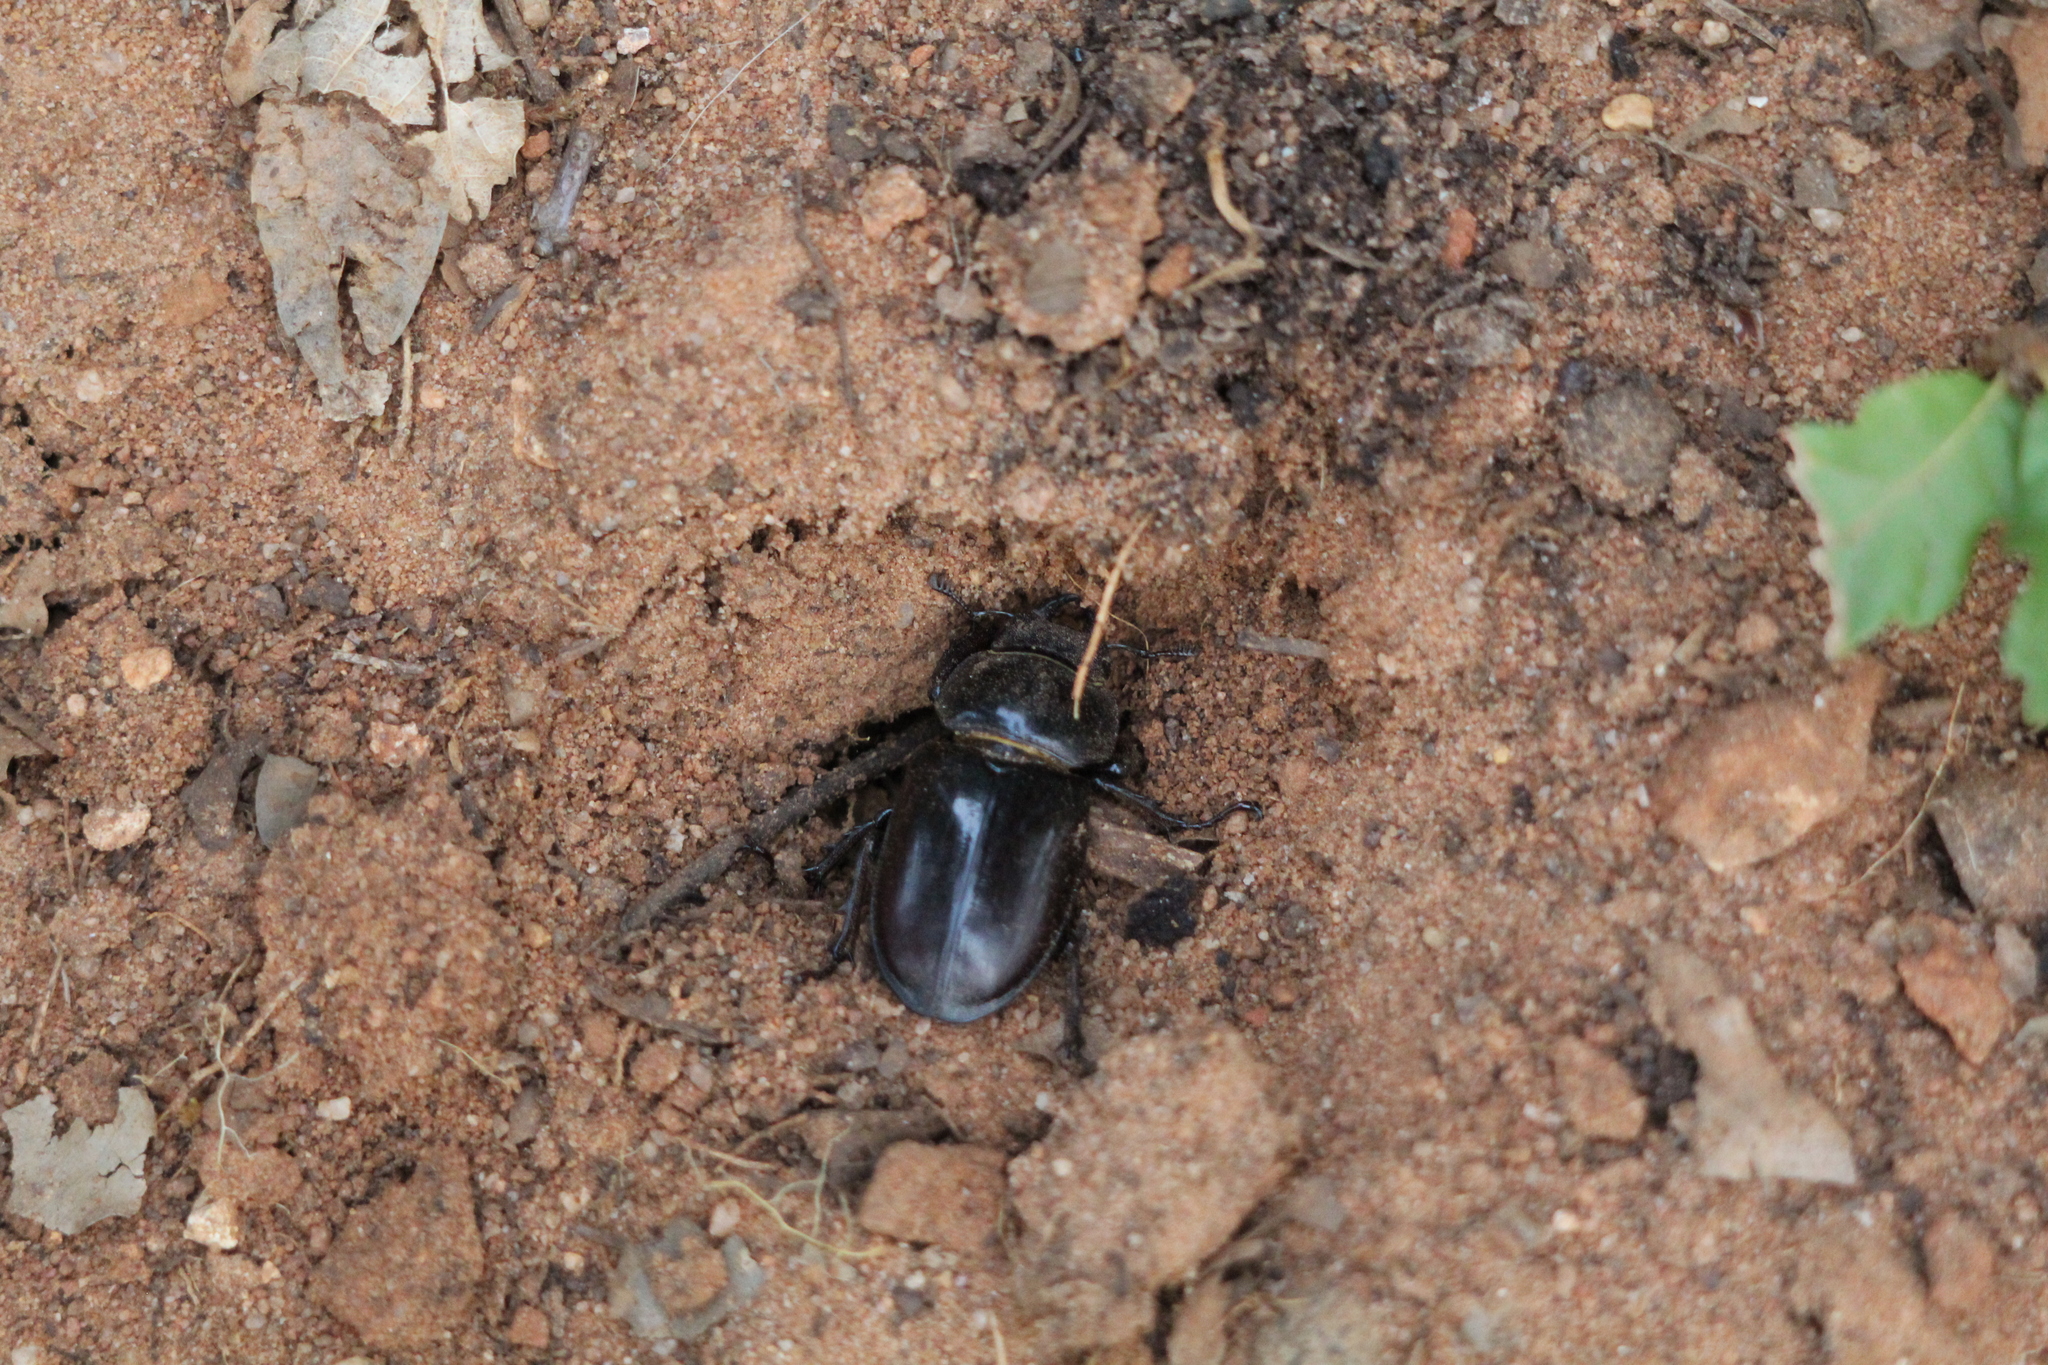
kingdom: Animalia
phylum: Arthropoda
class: Insecta
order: Coleoptera
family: Lucanidae
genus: Lucanus
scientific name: Lucanus cervus
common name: Stag beetle
